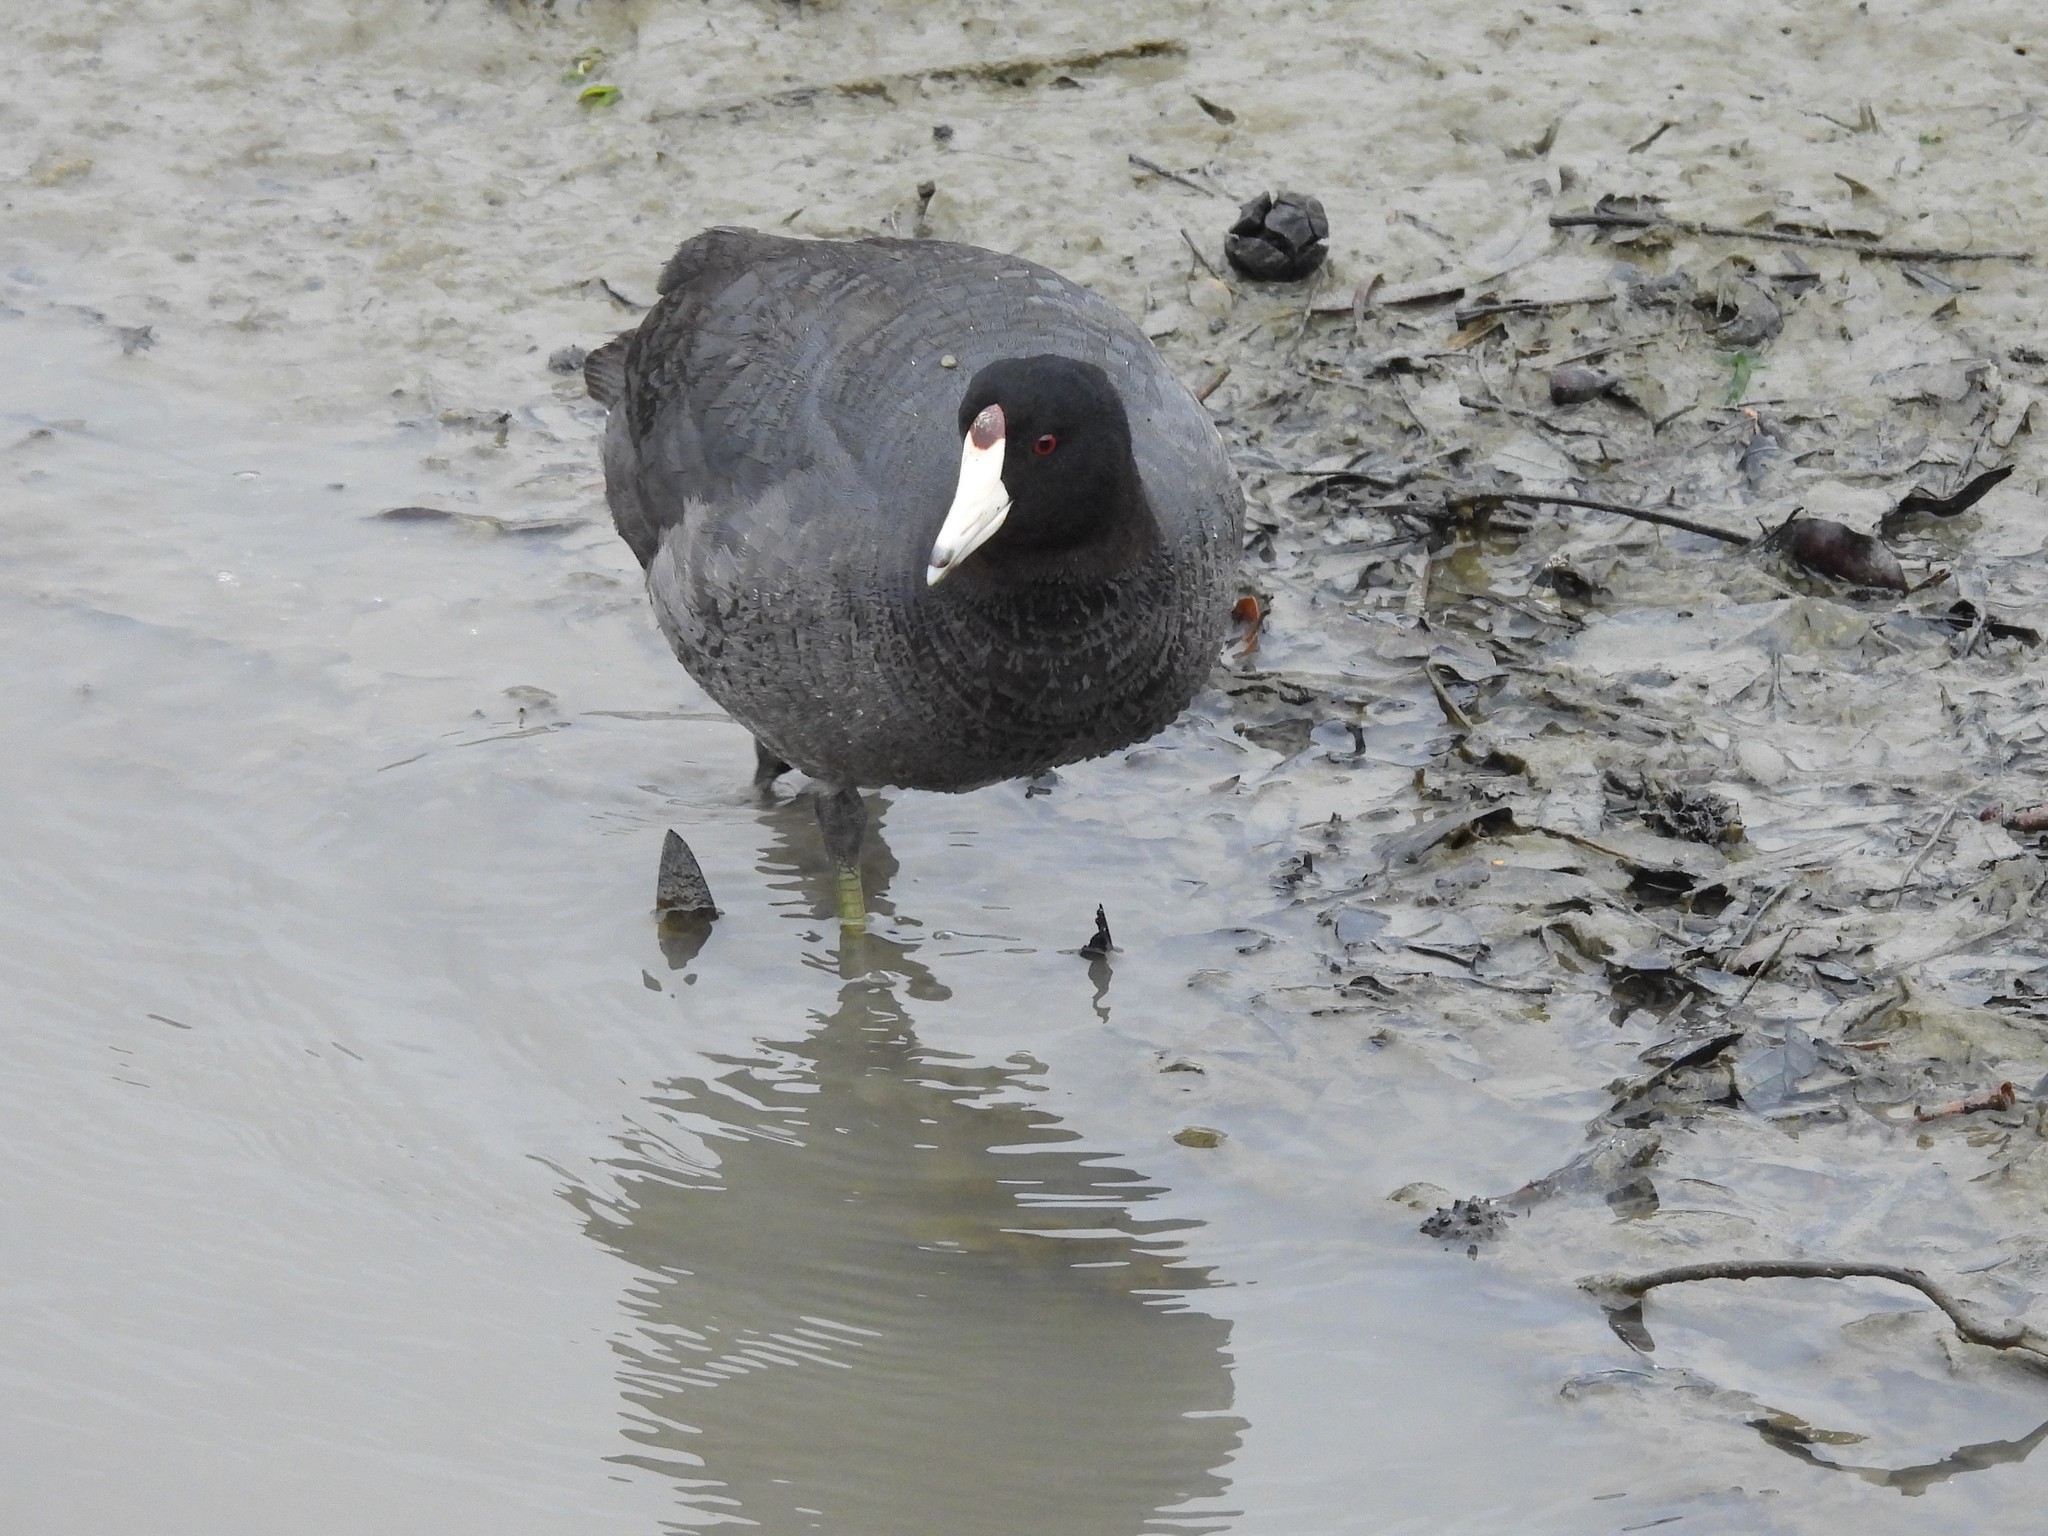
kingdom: Animalia
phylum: Chordata
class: Aves
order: Gruiformes
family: Rallidae
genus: Fulica
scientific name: Fulica americana
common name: American coot
